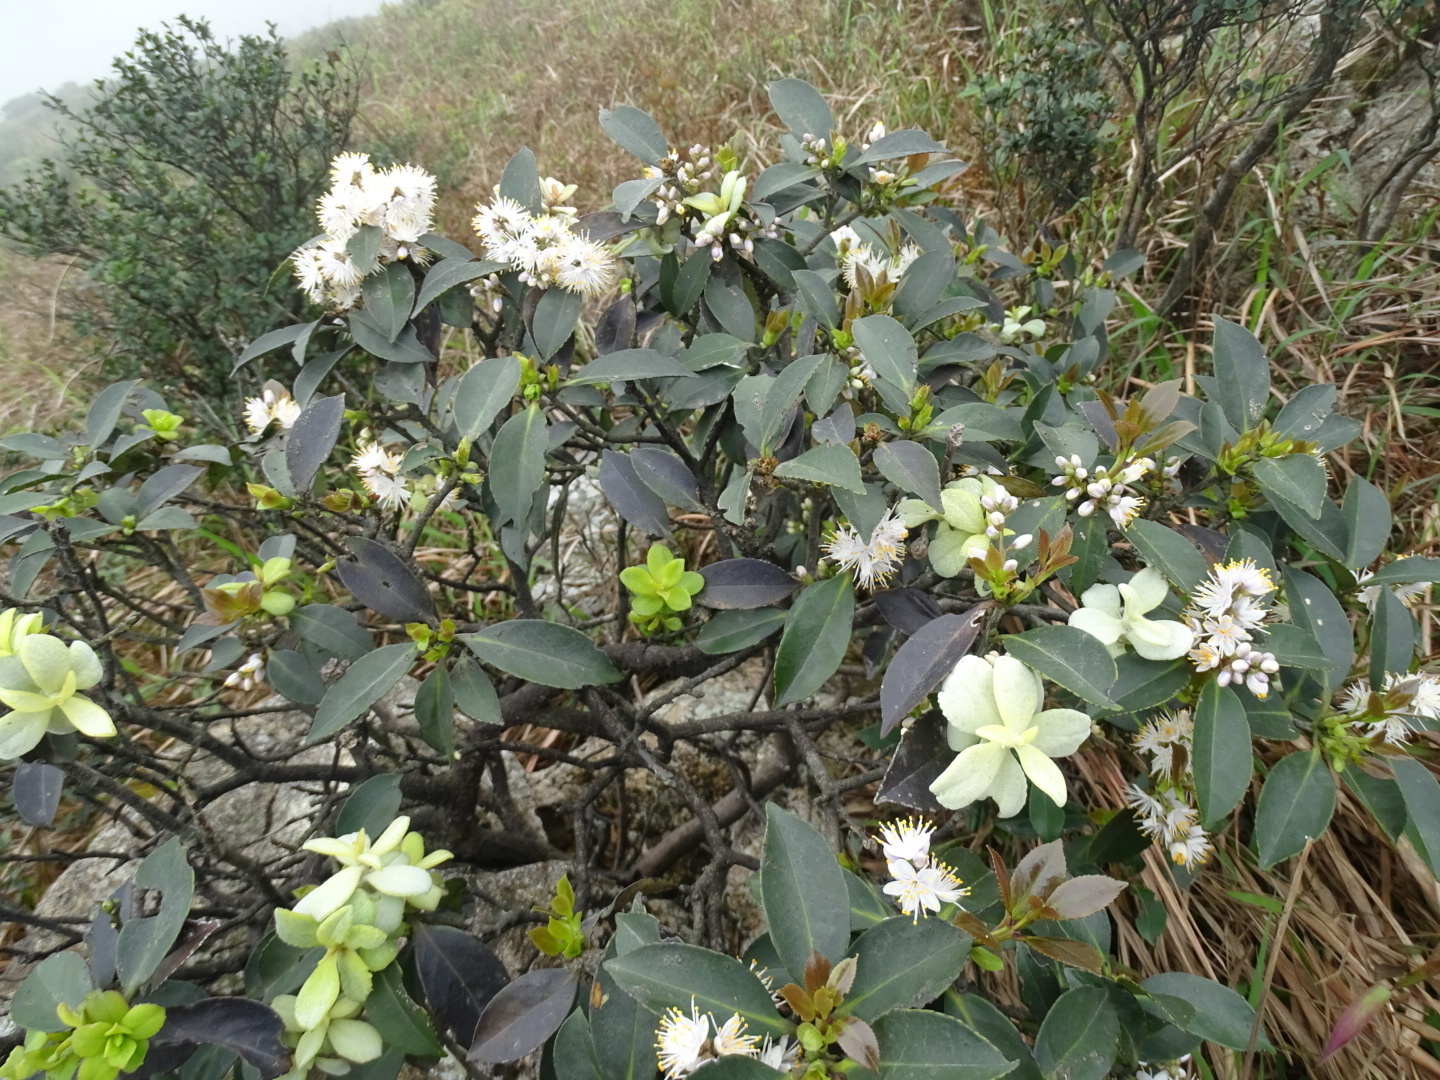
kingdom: Plantae
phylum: Tracheophyta
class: Magnoliopsida
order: Ericales
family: Symplocaceae
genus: Symplocos
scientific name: Symplocos sumuntia
